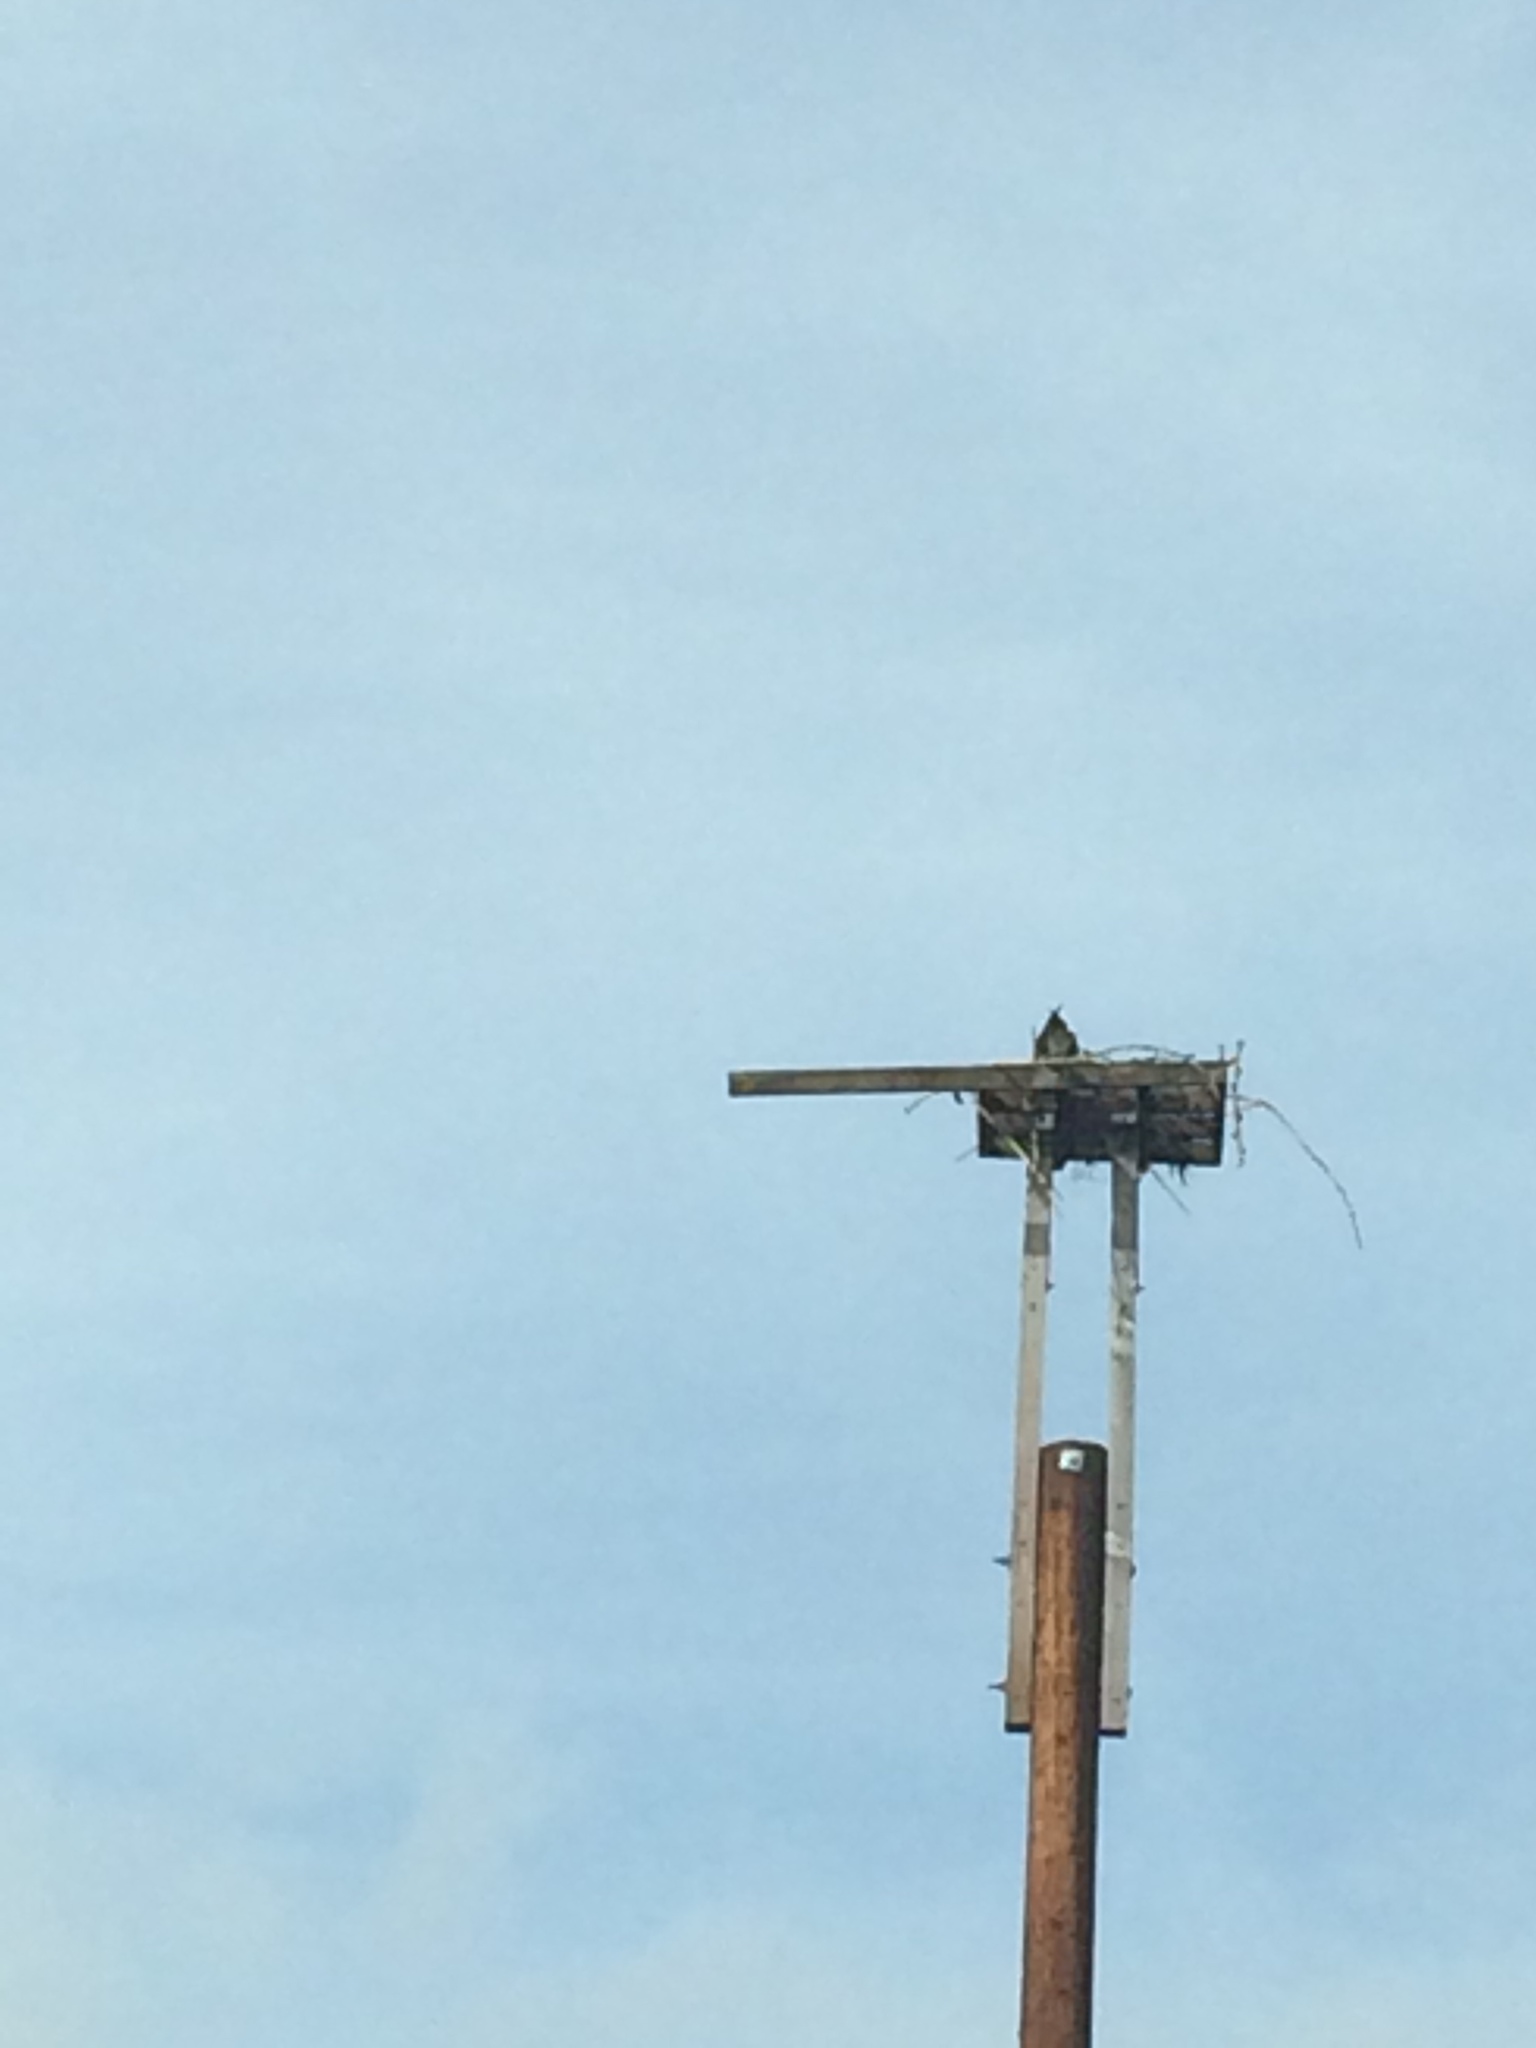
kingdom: Animalia
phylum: Chordata
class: Aves
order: Accipitriformes
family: Pandionidae
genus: Pandion
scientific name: Pandion haliaetus
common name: Osprey
